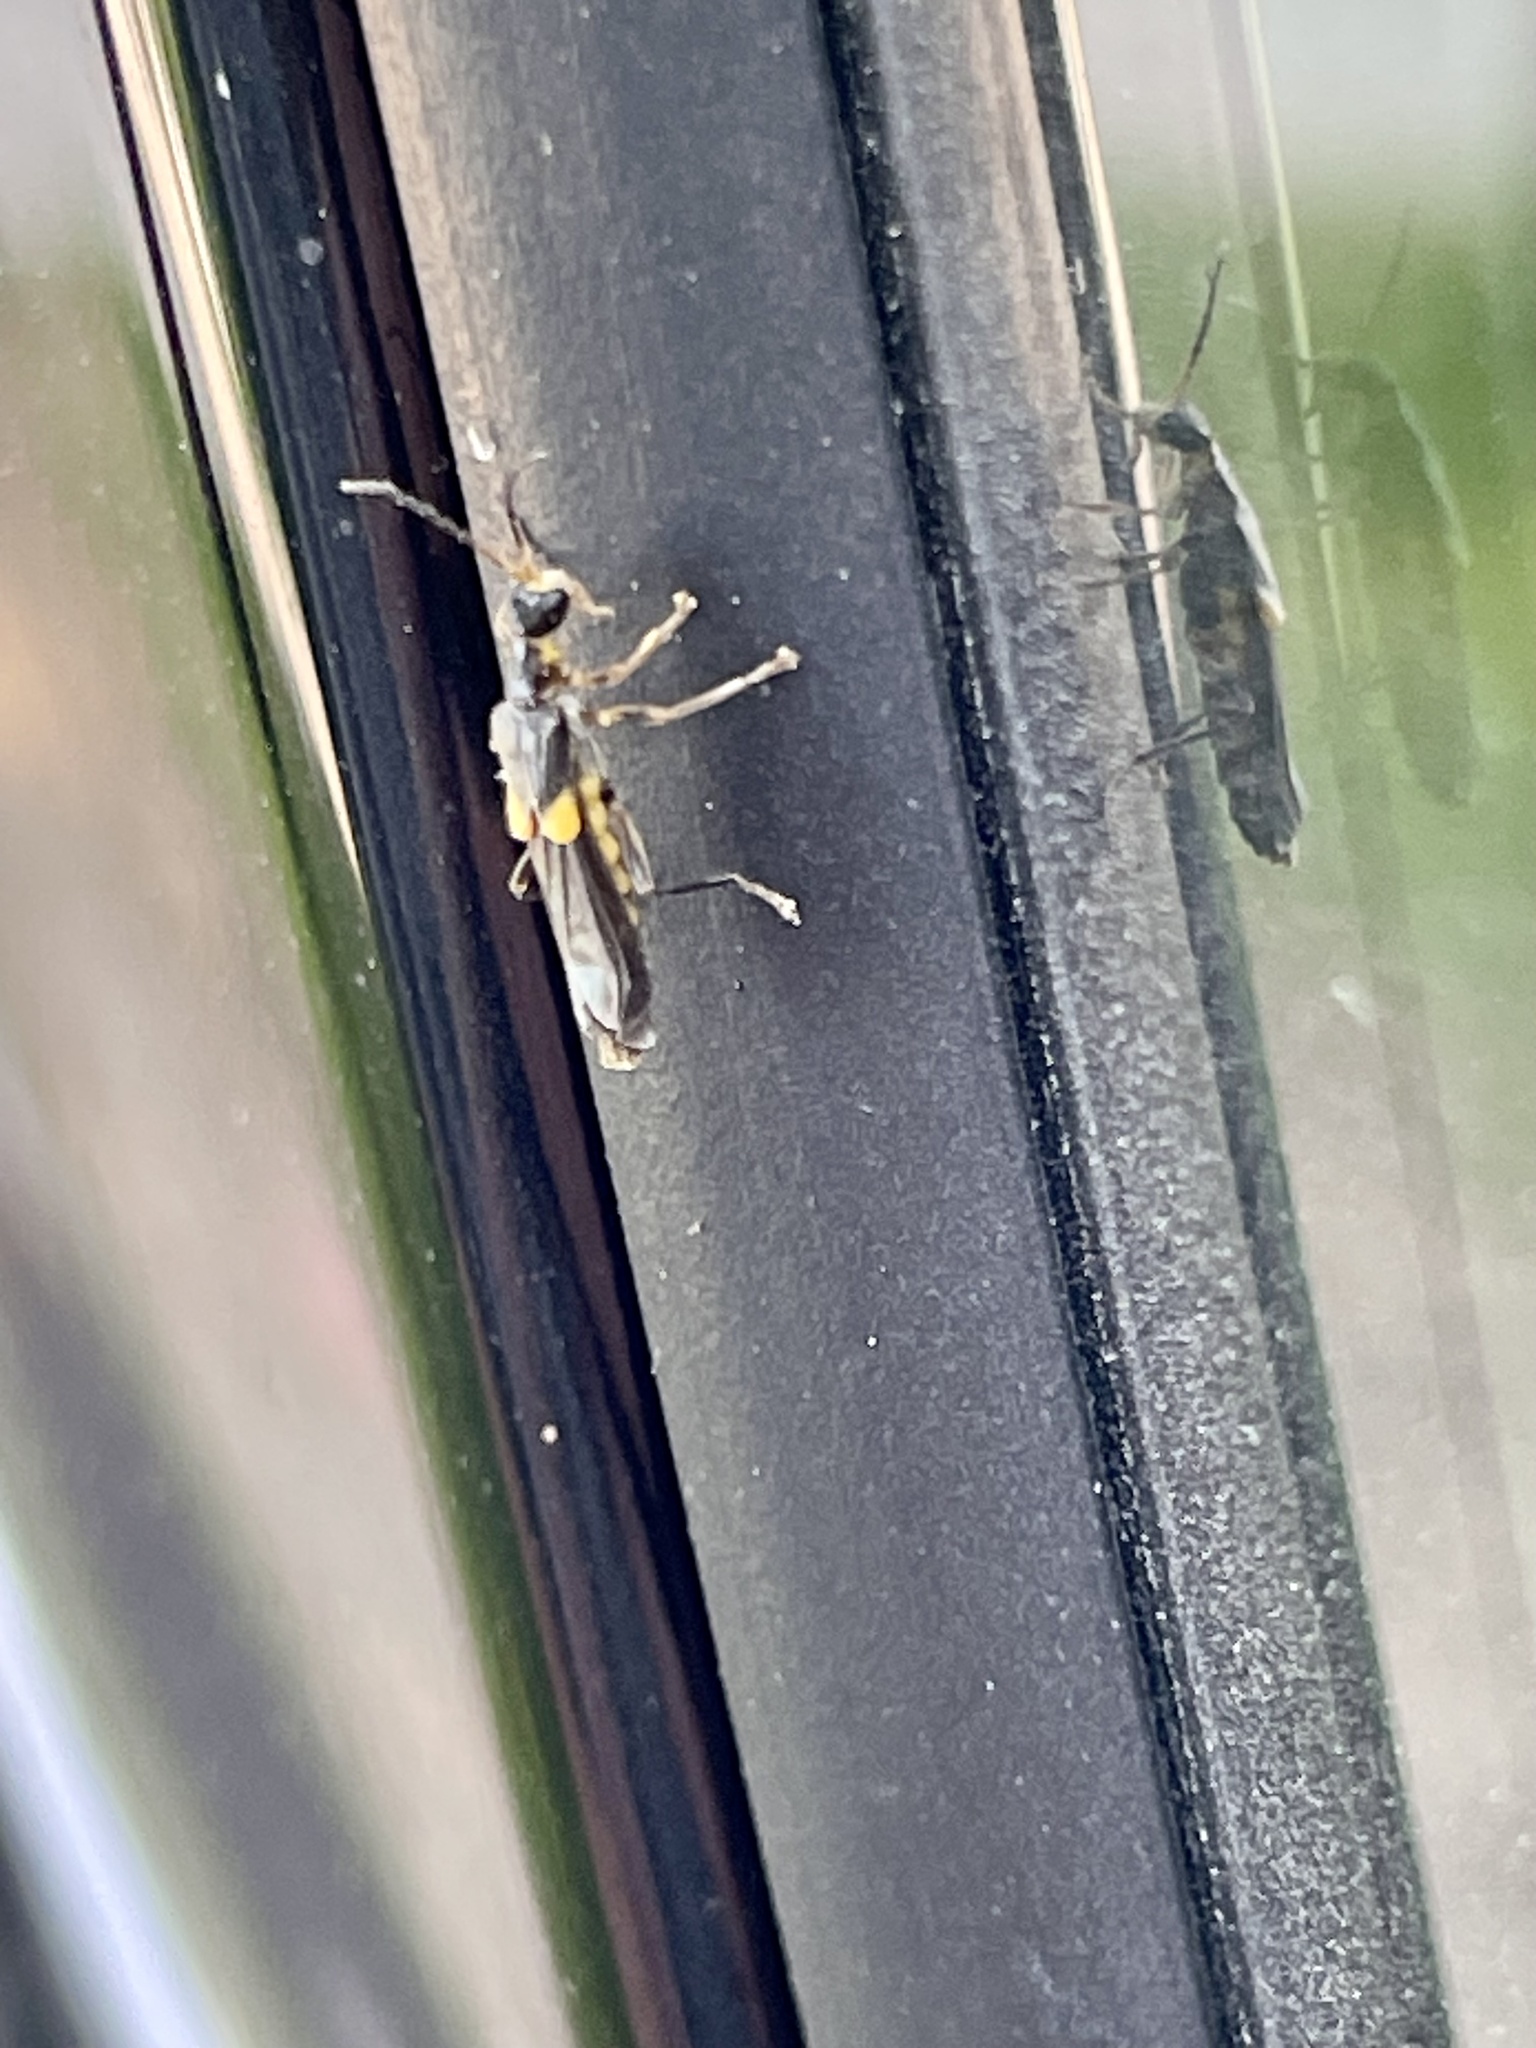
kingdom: Animalia
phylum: Arthropoda
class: Insecta
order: Coleoptera
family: Cantharidae
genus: Trypherus
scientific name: Trypherus frisoni
